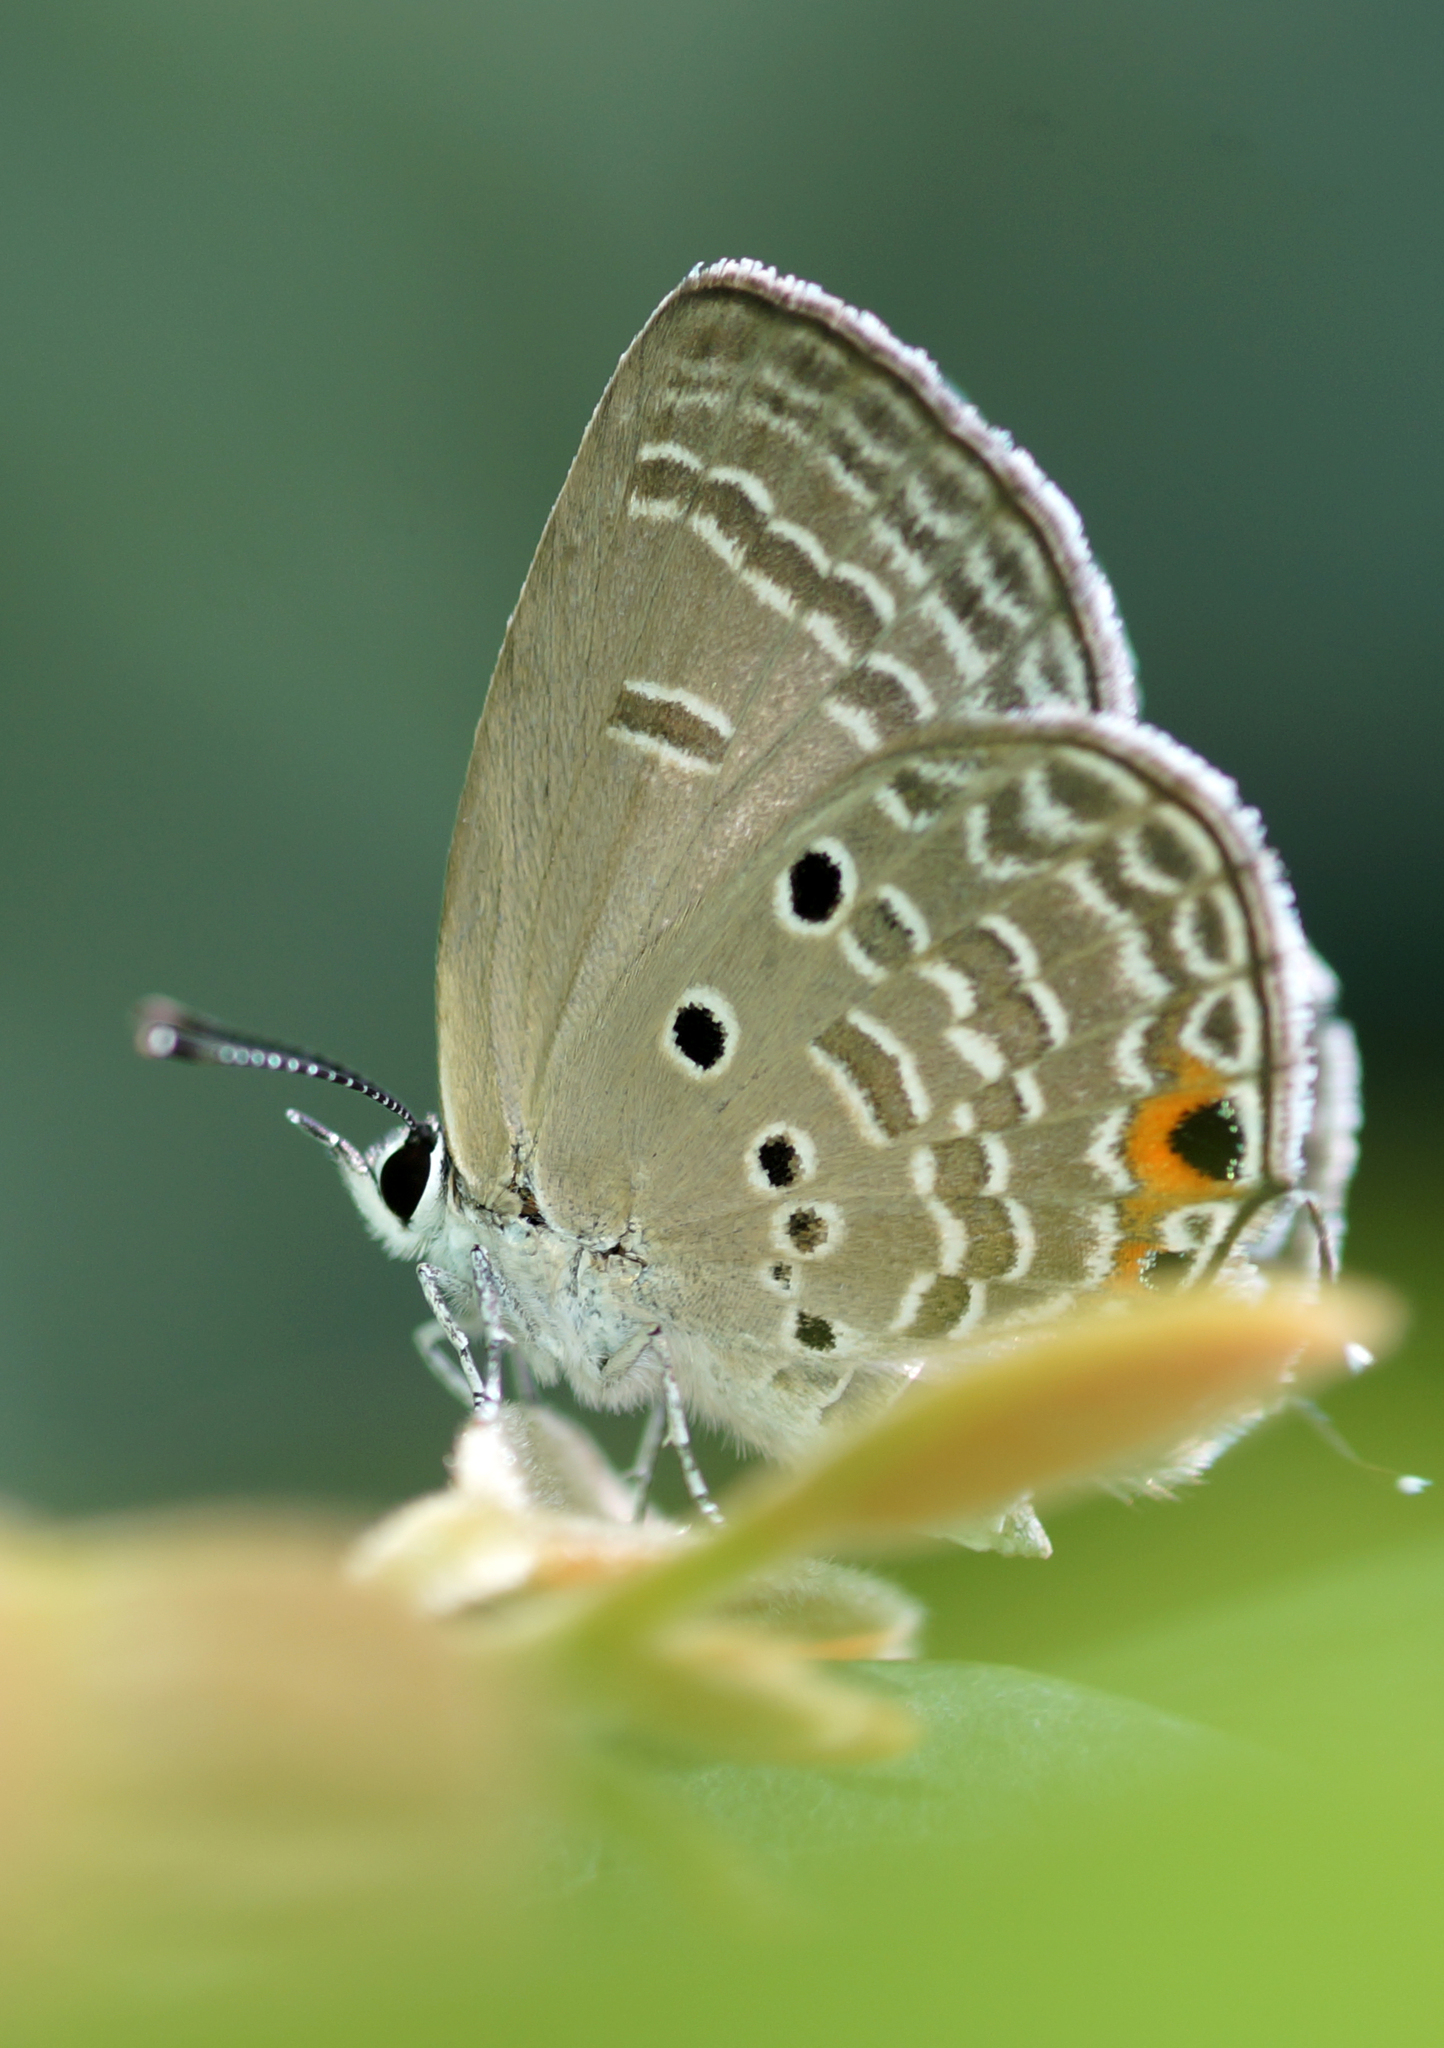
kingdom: Animalia
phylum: Arthropoda
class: Insecta
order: Lepidoptera
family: Lycaenidae
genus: Luthrodes
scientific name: Luthrodes pandava
